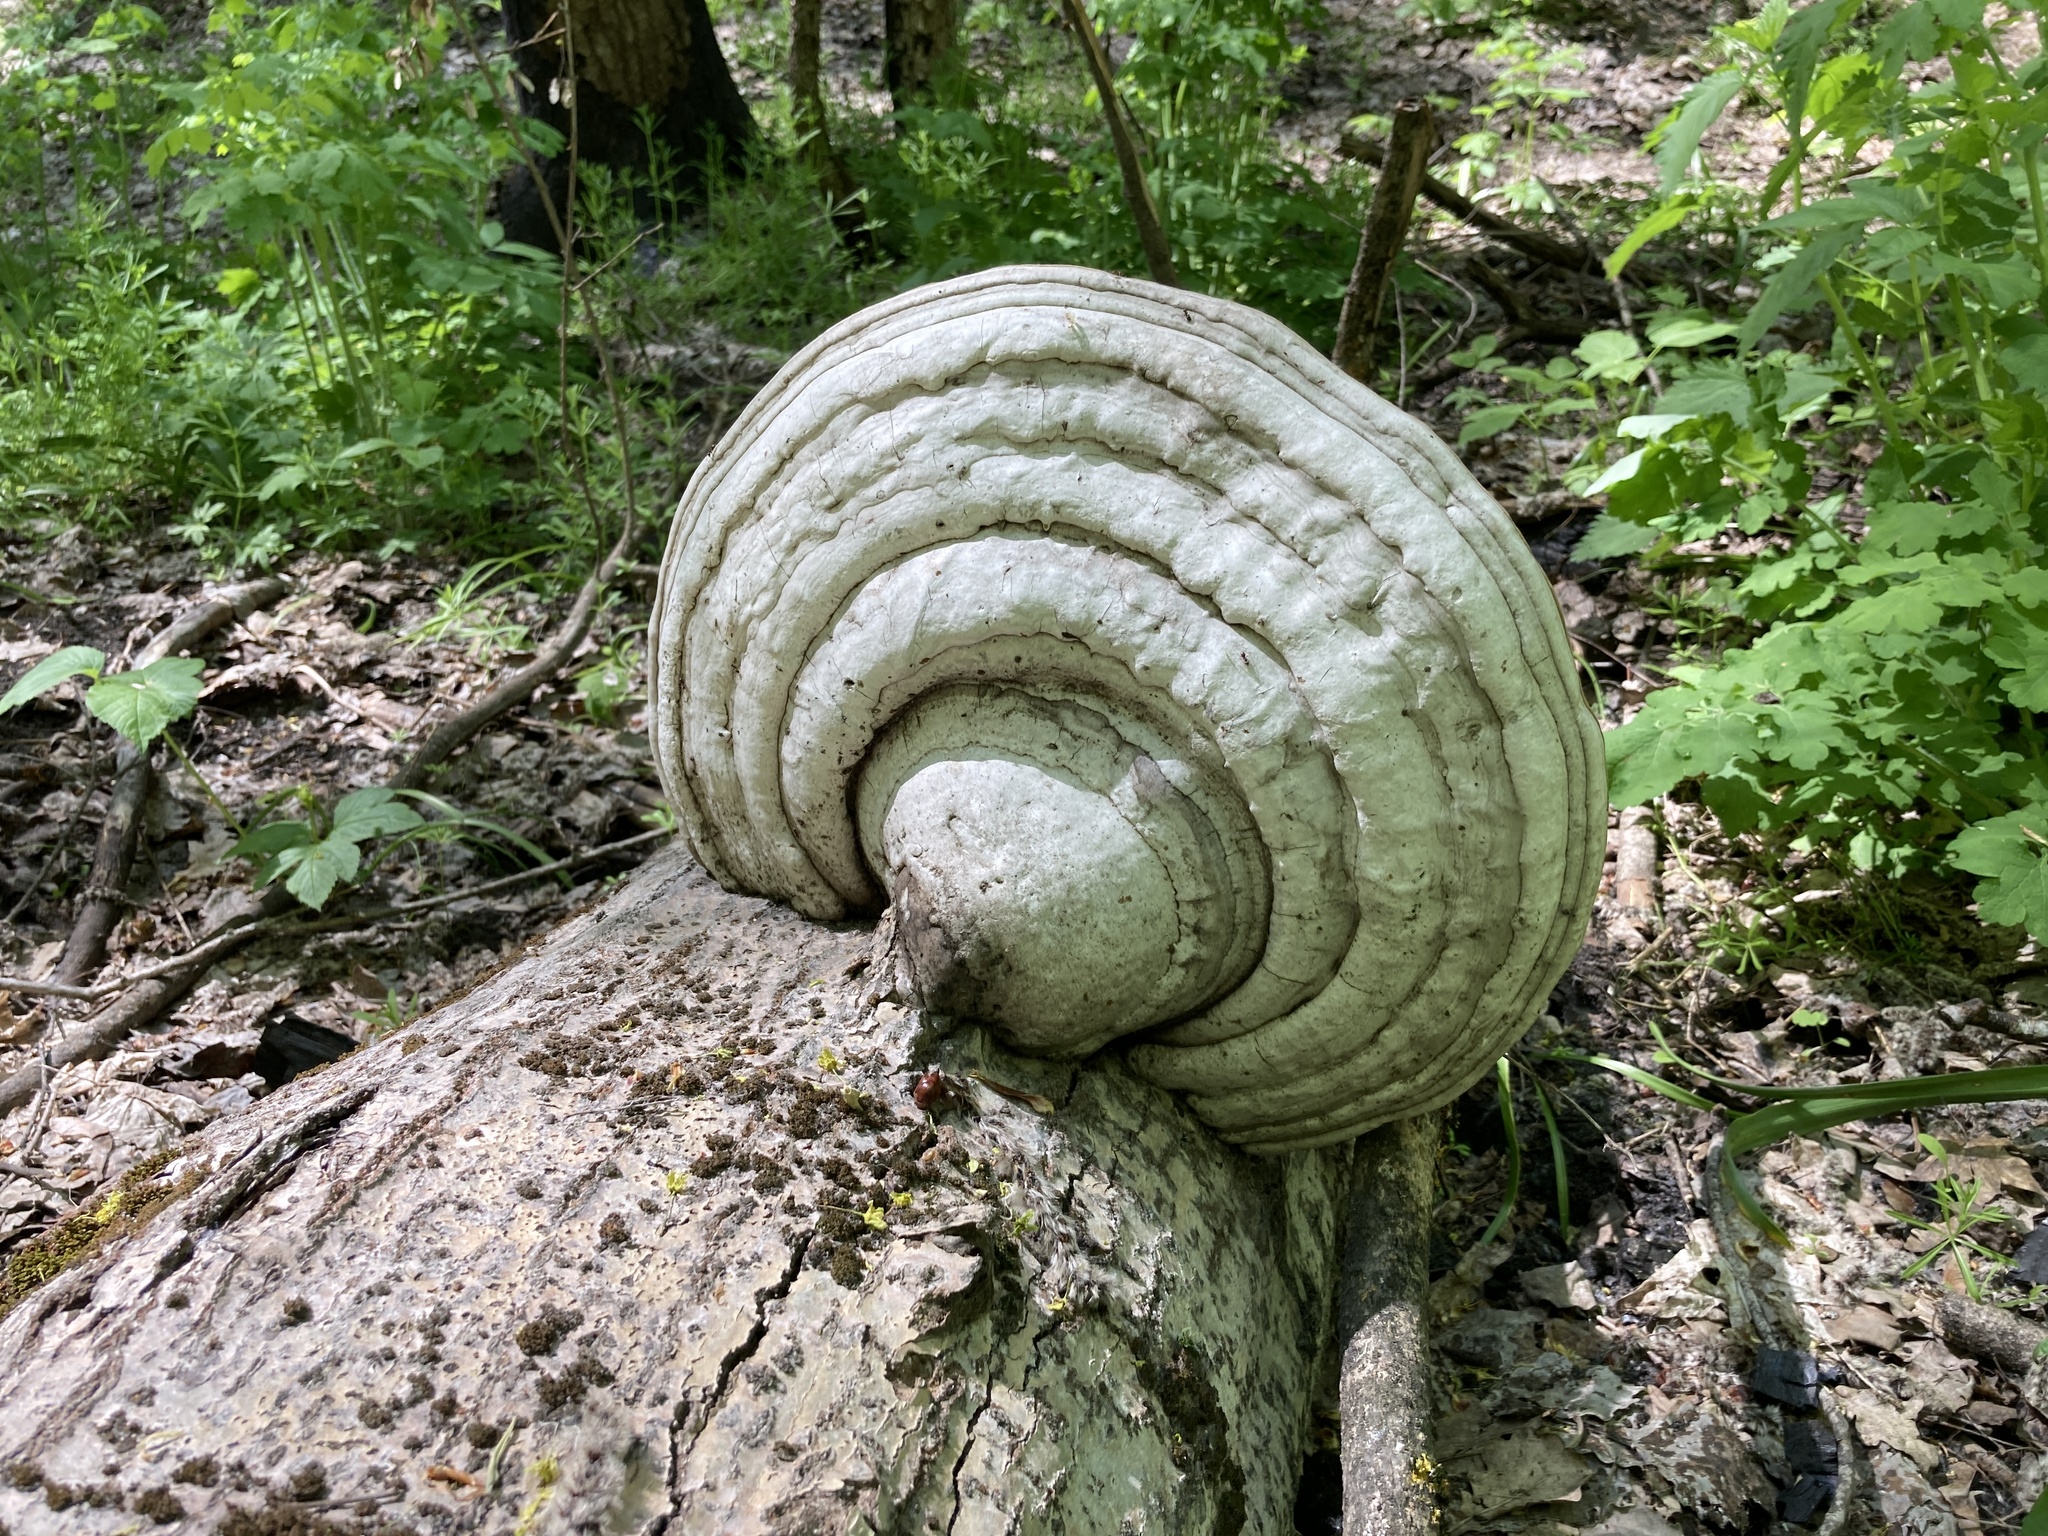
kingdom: Fungi
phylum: Basidiomycota
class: Agaricomycetes
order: Polyporales
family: Polyporaceae
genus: Fomes
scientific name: Fomes fomentarius
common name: Hoof fungus
